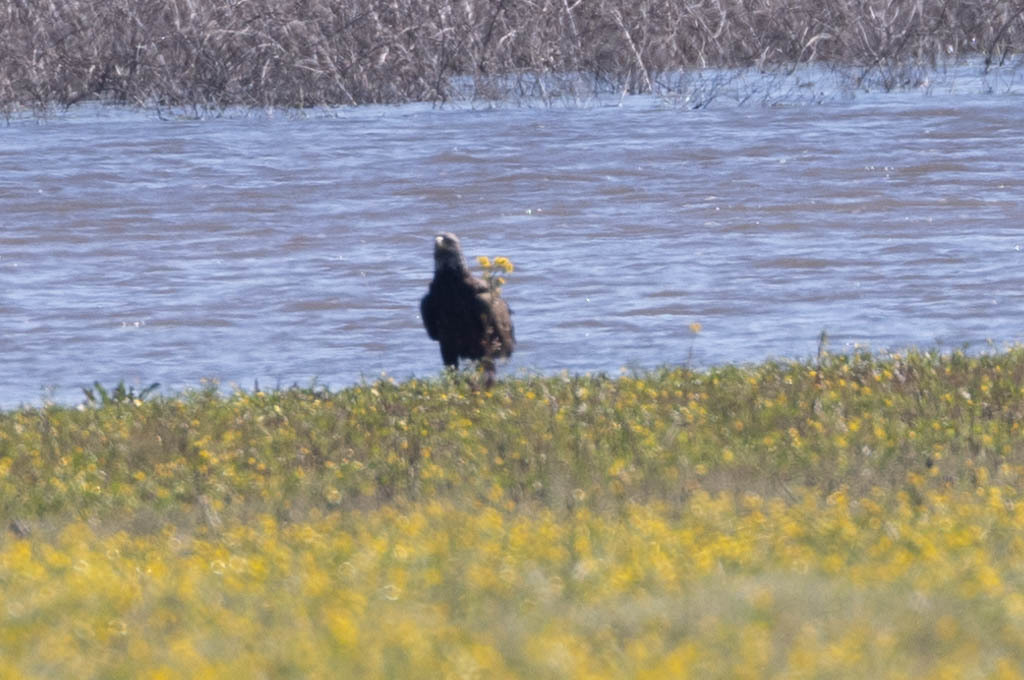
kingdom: Animalia
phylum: Chordata
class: Aves
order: Accipitriformes
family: Accipitridae
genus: Haliaeetus
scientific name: Haliaeetus leucocephalus
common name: Bald eagle
